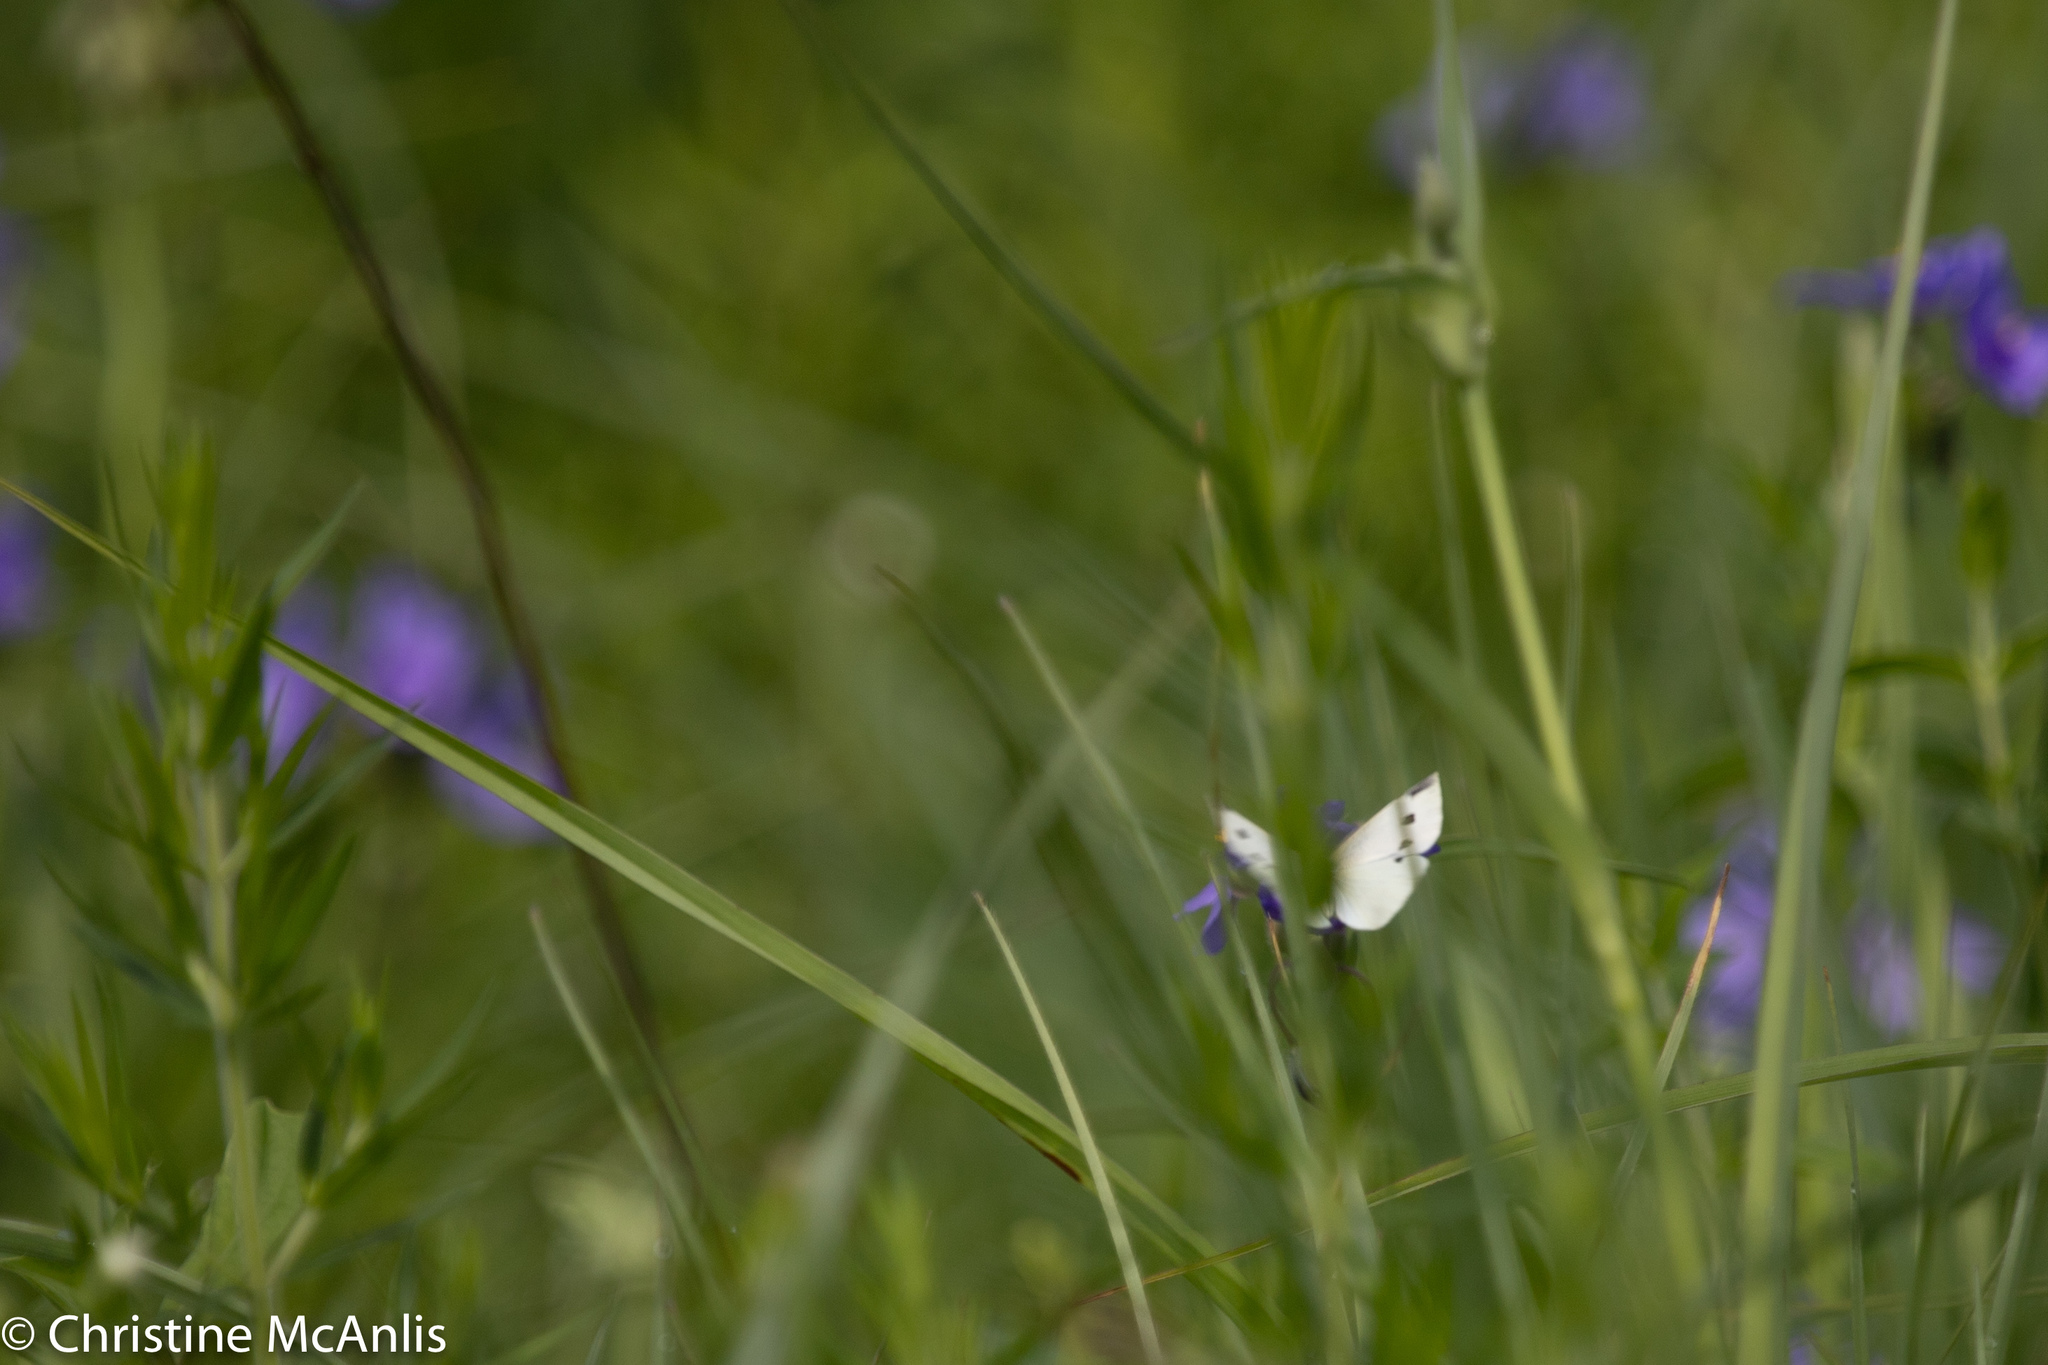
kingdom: Animalia
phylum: Arthropoda
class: Insecta
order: Lepidoptera
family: Pieridae
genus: Pieris
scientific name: Pieris rapae
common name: Small white
